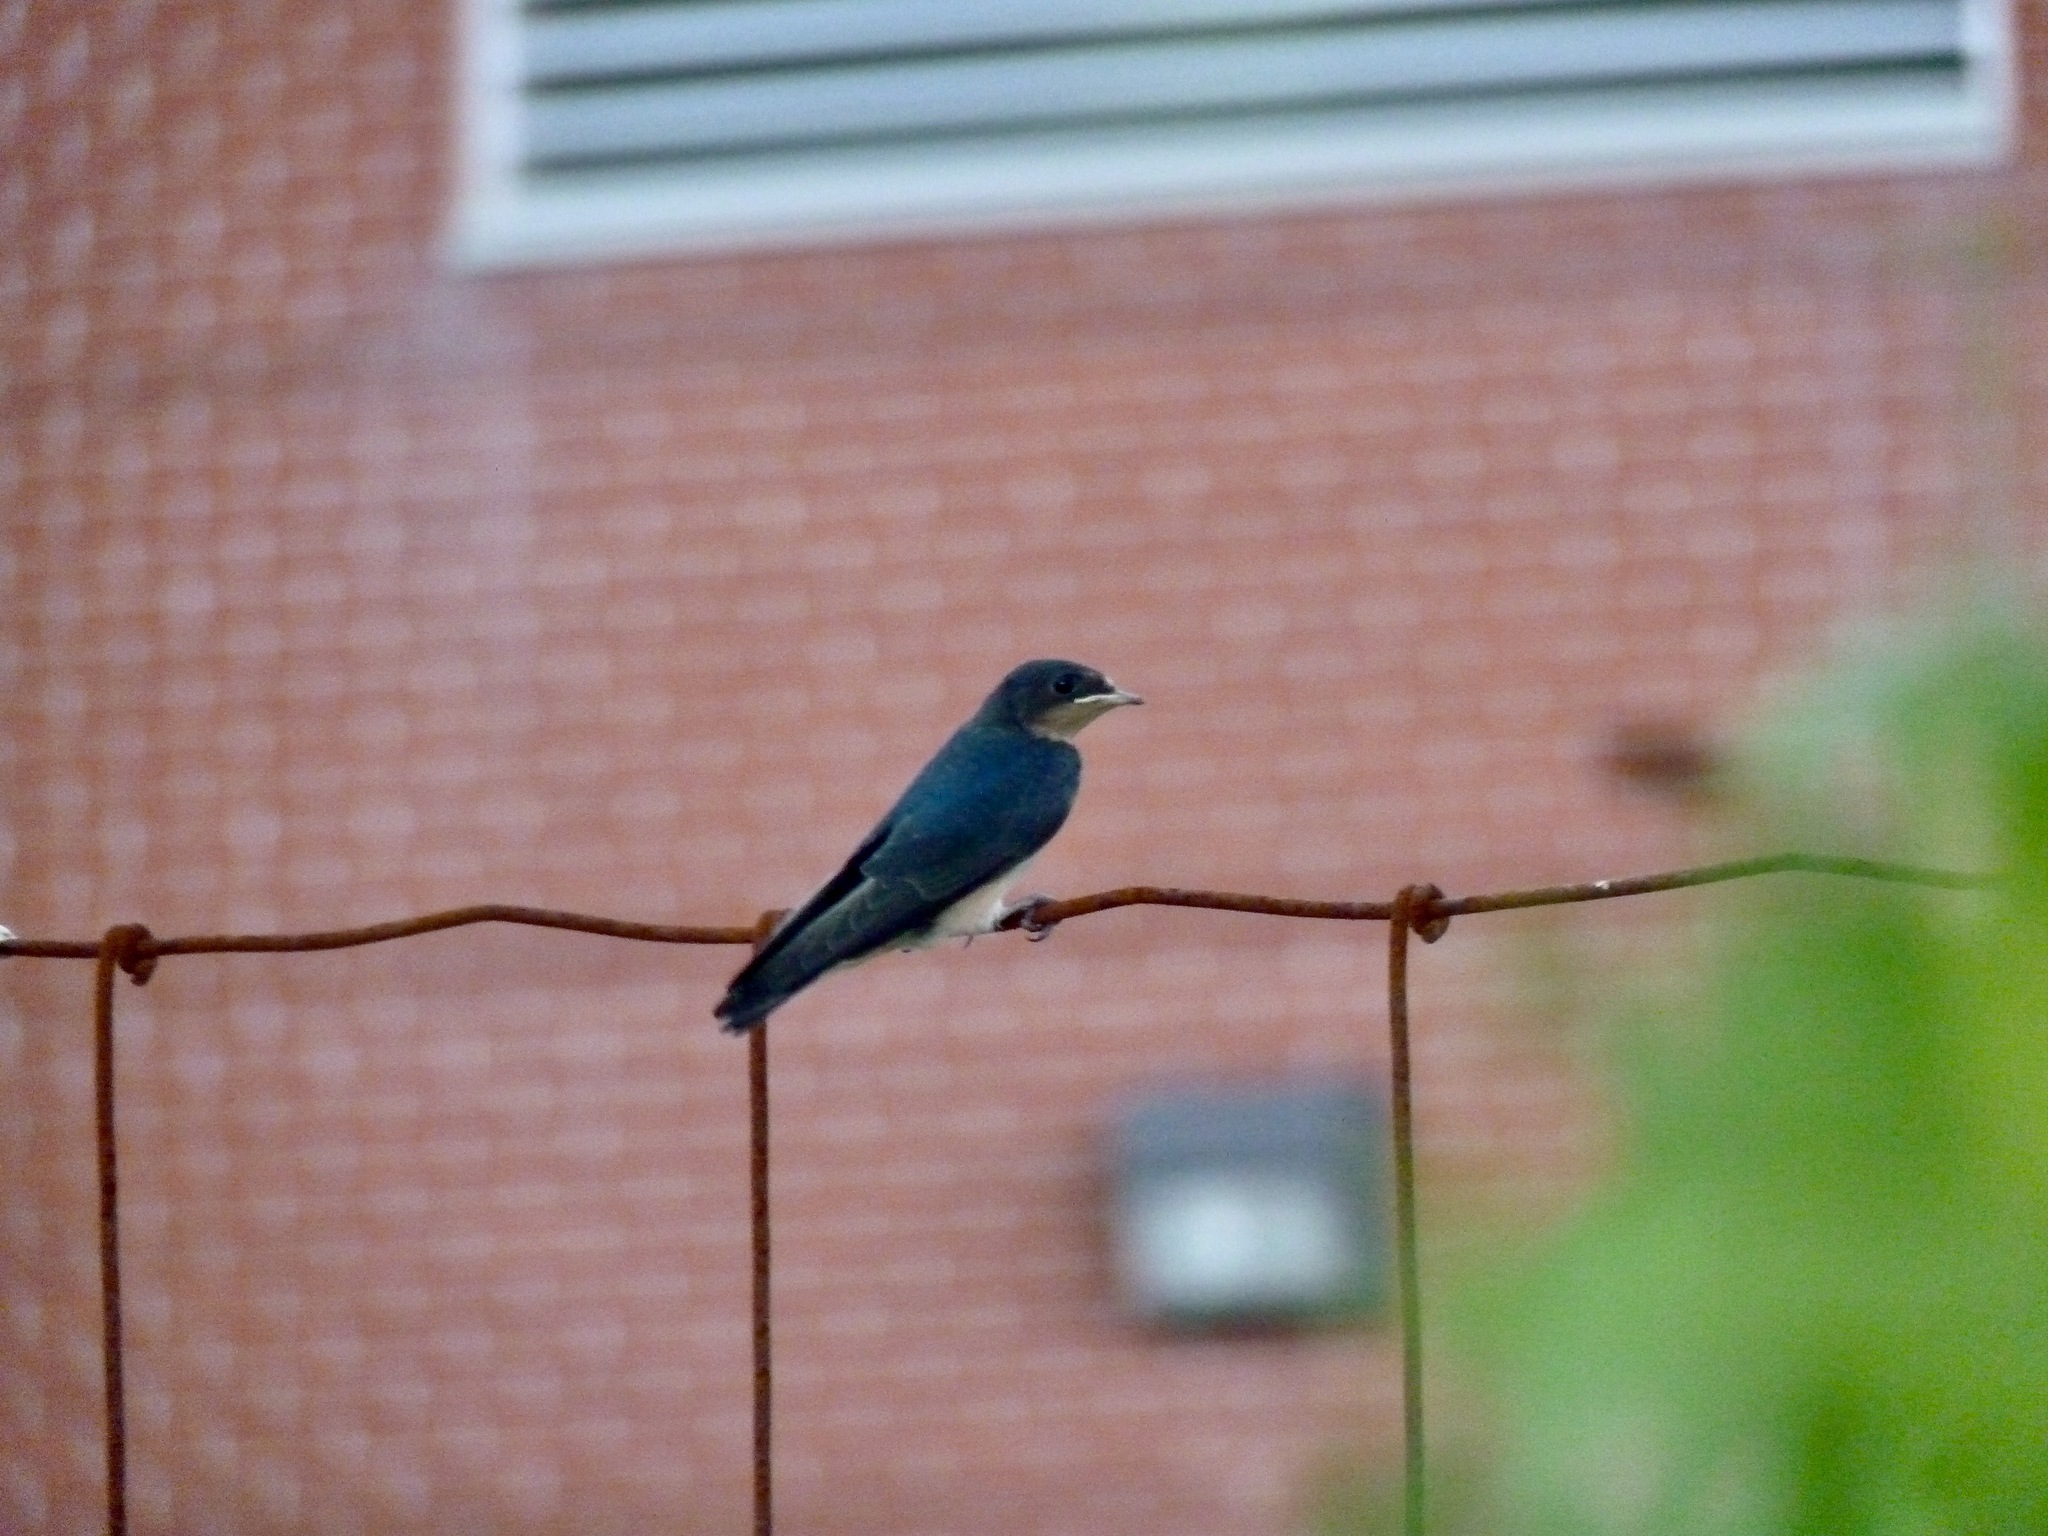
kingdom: Animalia
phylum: Chordata
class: Aves
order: Passeriformes
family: Hirundinidae
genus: Hirundo
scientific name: Hirundo rustica
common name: Barn swallow
